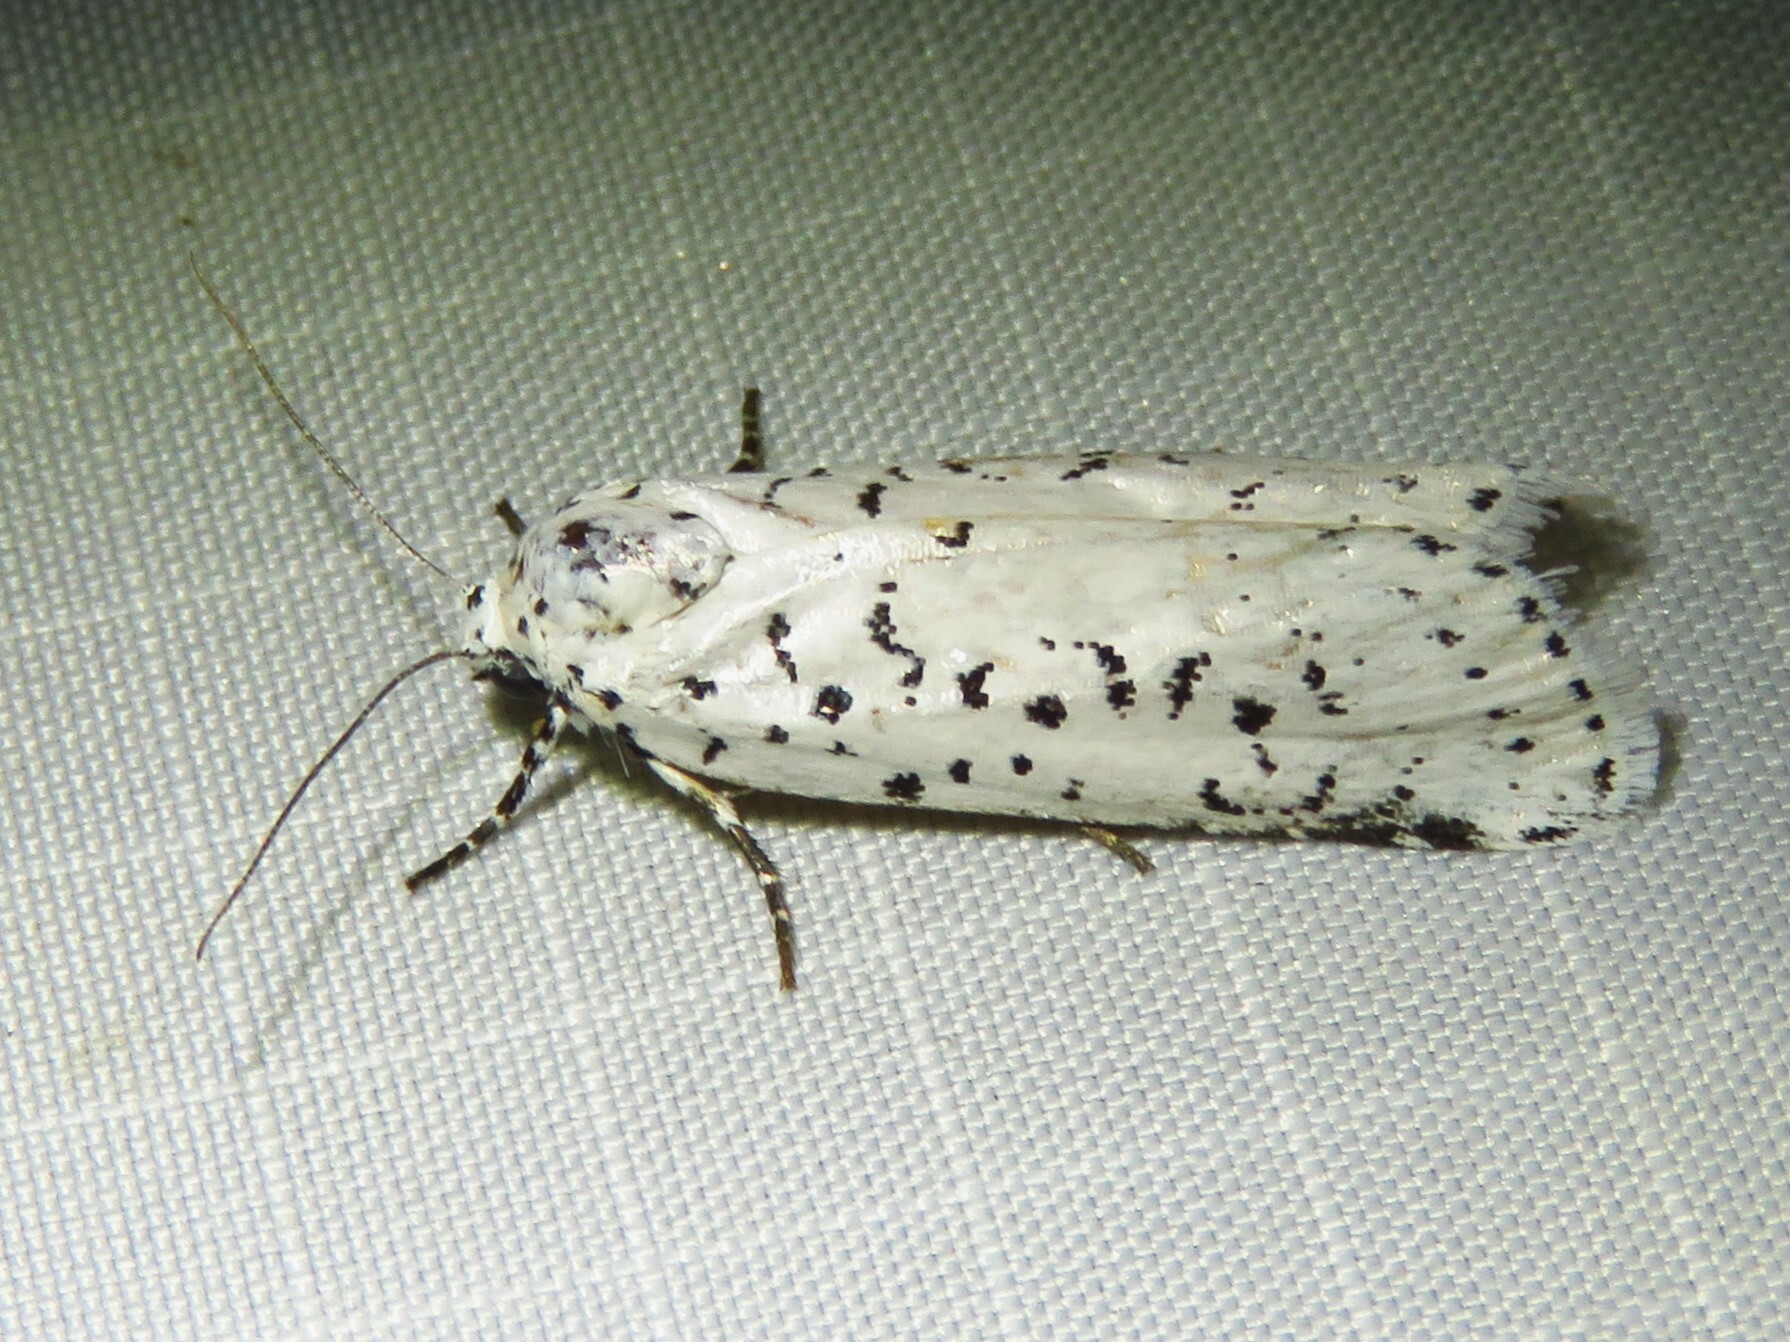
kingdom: Animalia
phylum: Arthropoda
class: Insecta
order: Lepidoptera
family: Noctuidae
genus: Cerathosia
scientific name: Cerathosia tricolor
